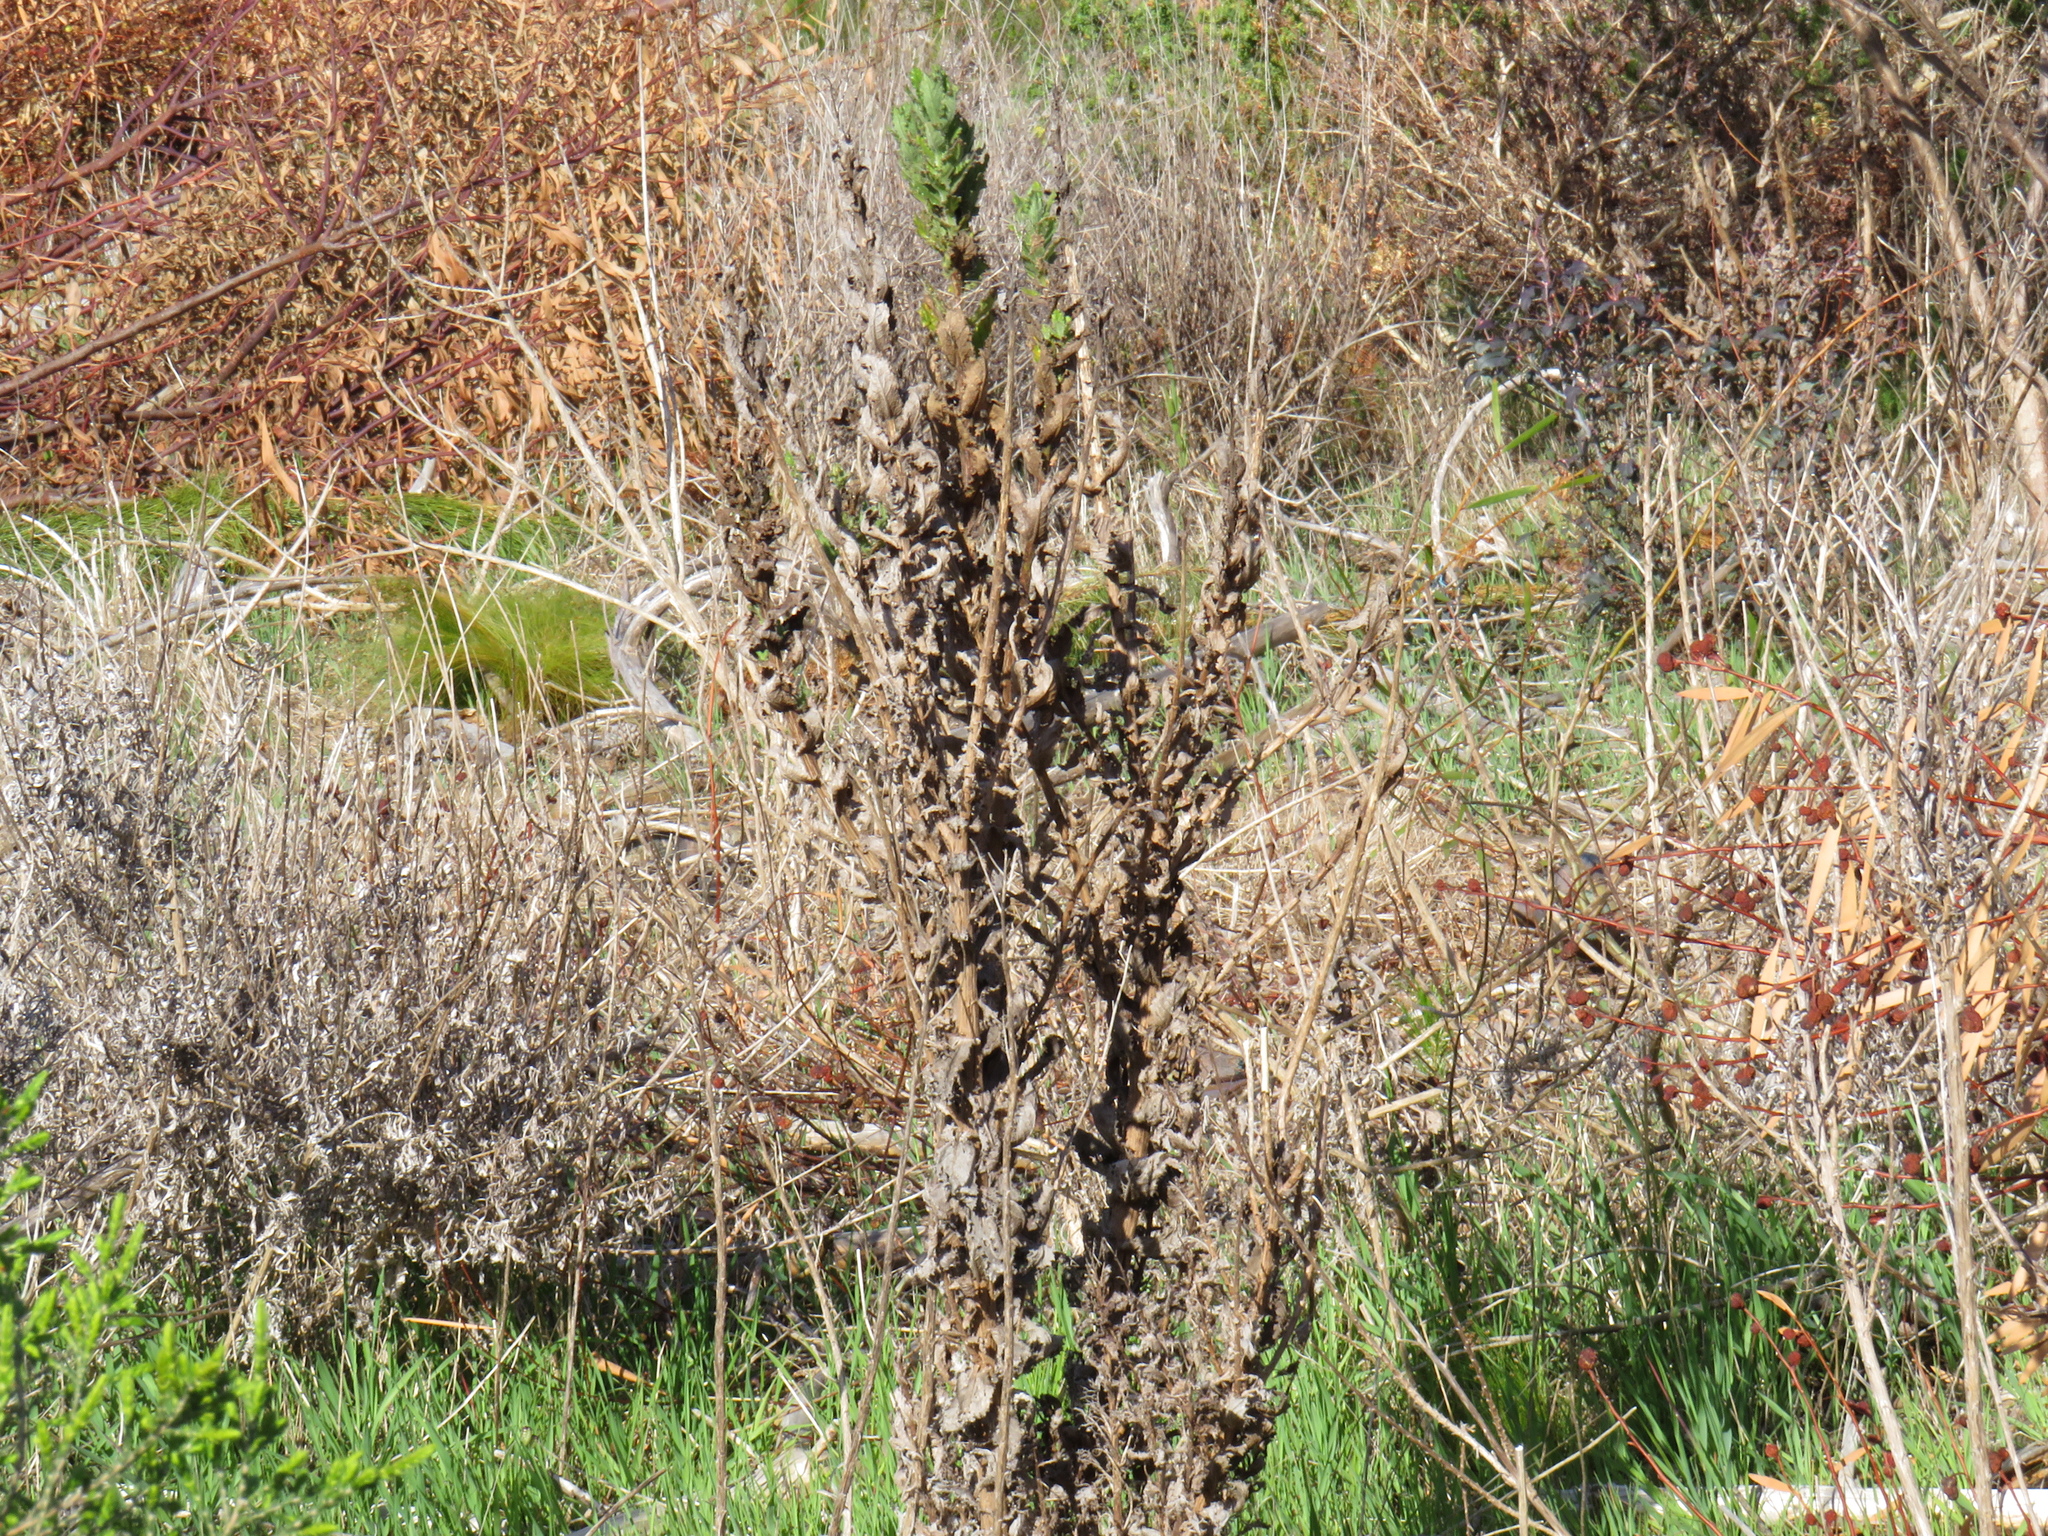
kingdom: Plantae
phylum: Tracheophyta
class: Magnoliopsida
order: Asterales
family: Asteraceae
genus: Senecio
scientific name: Senecio rigidus
